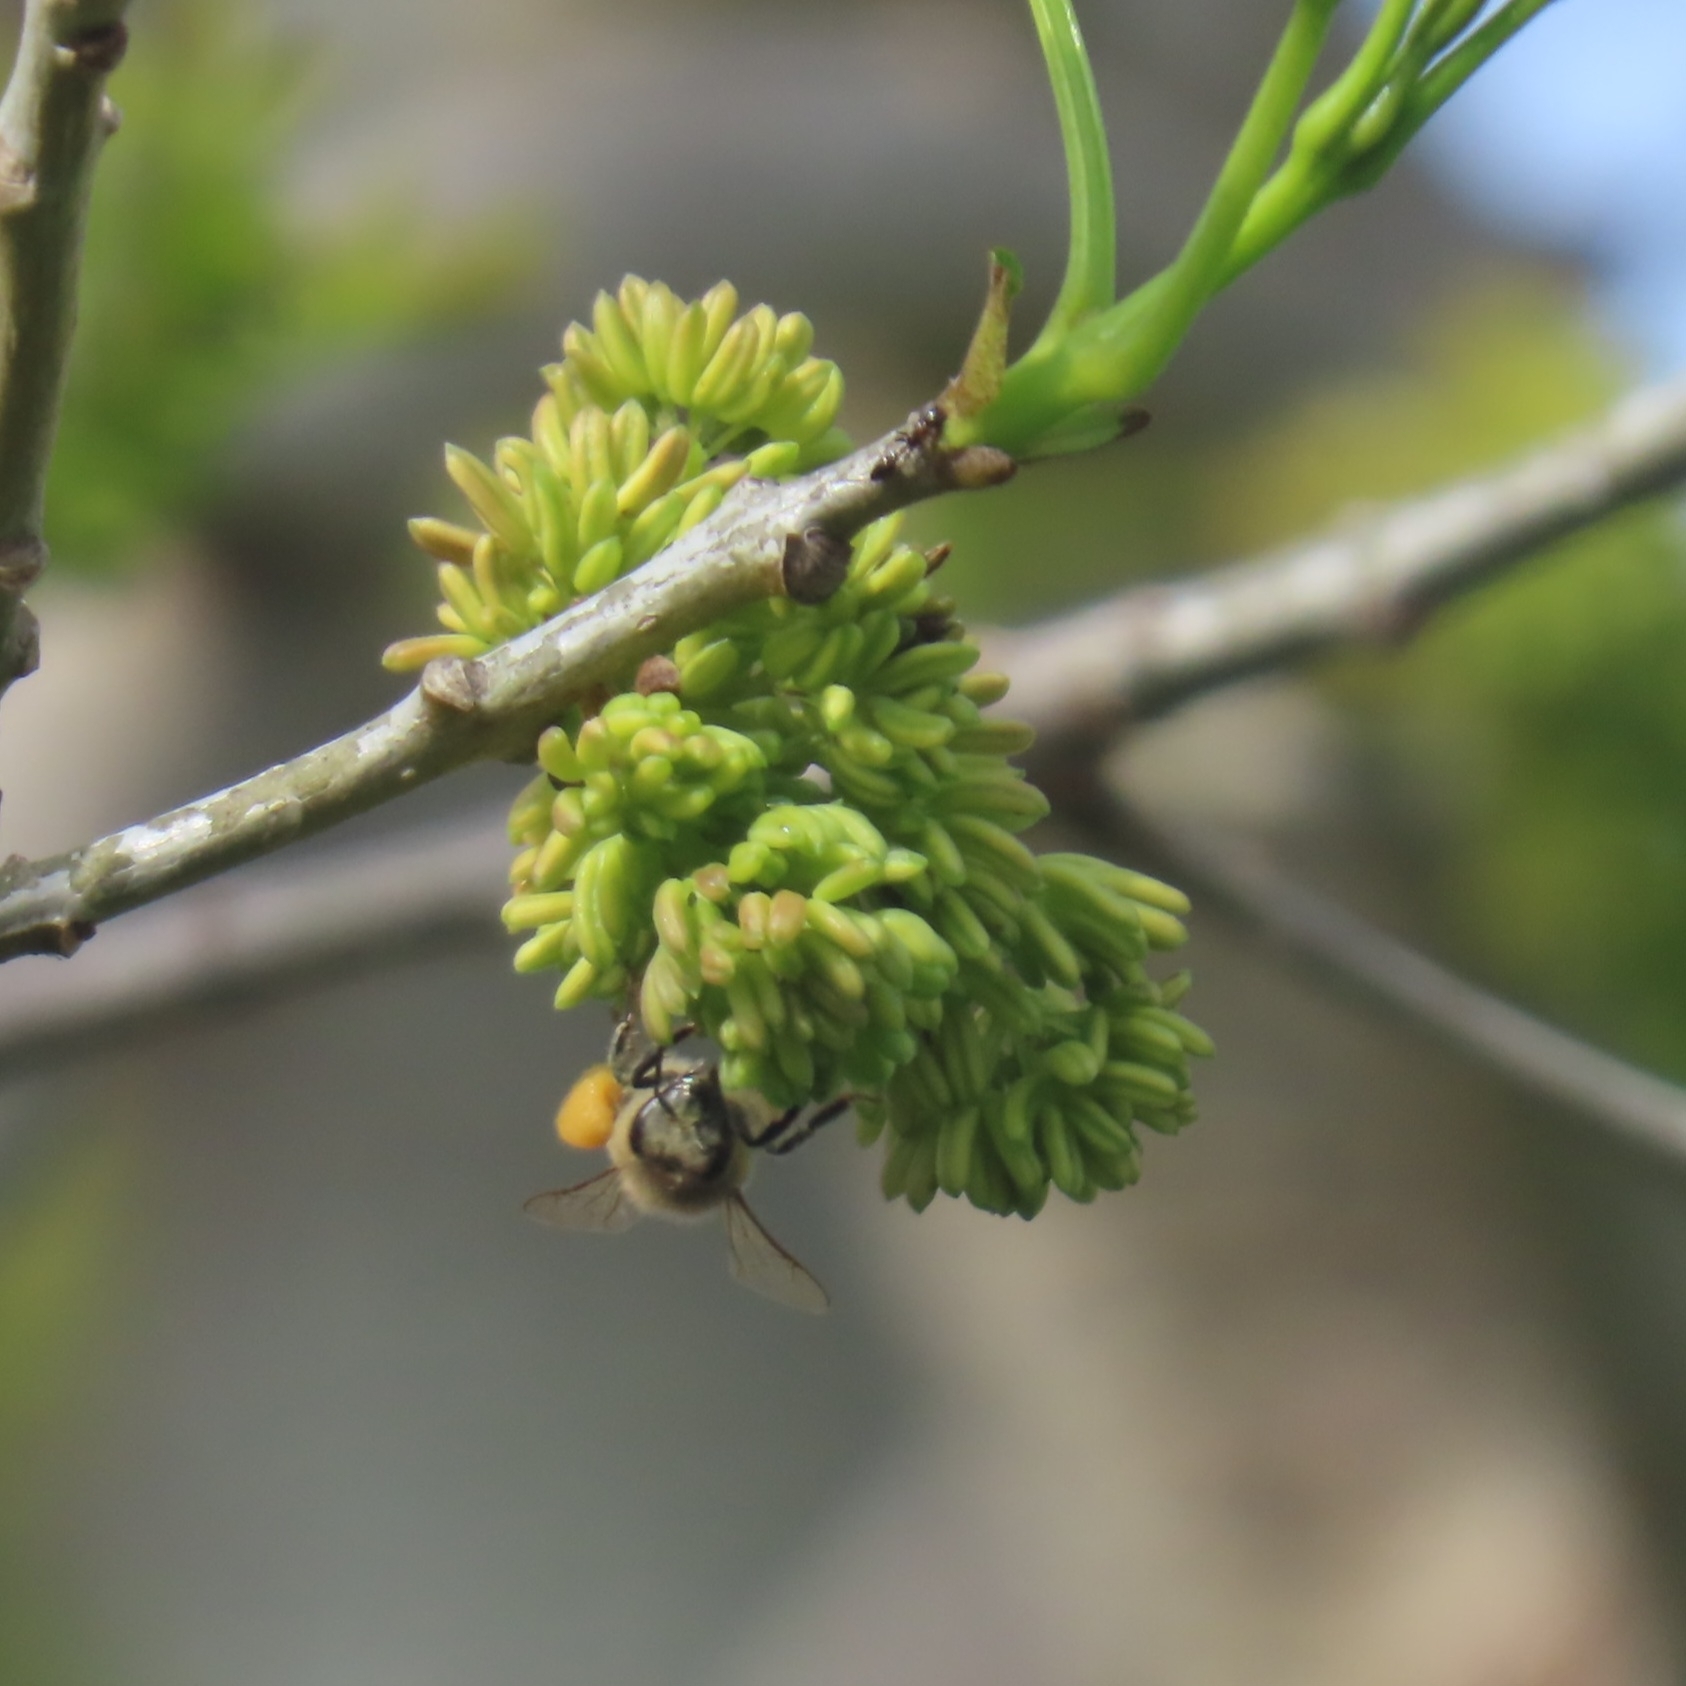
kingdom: Animalia
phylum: Arthropoda
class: Insecta
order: Hymenoptera
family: Apidae
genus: Apis
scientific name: Apis mellifera
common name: Honey bee
